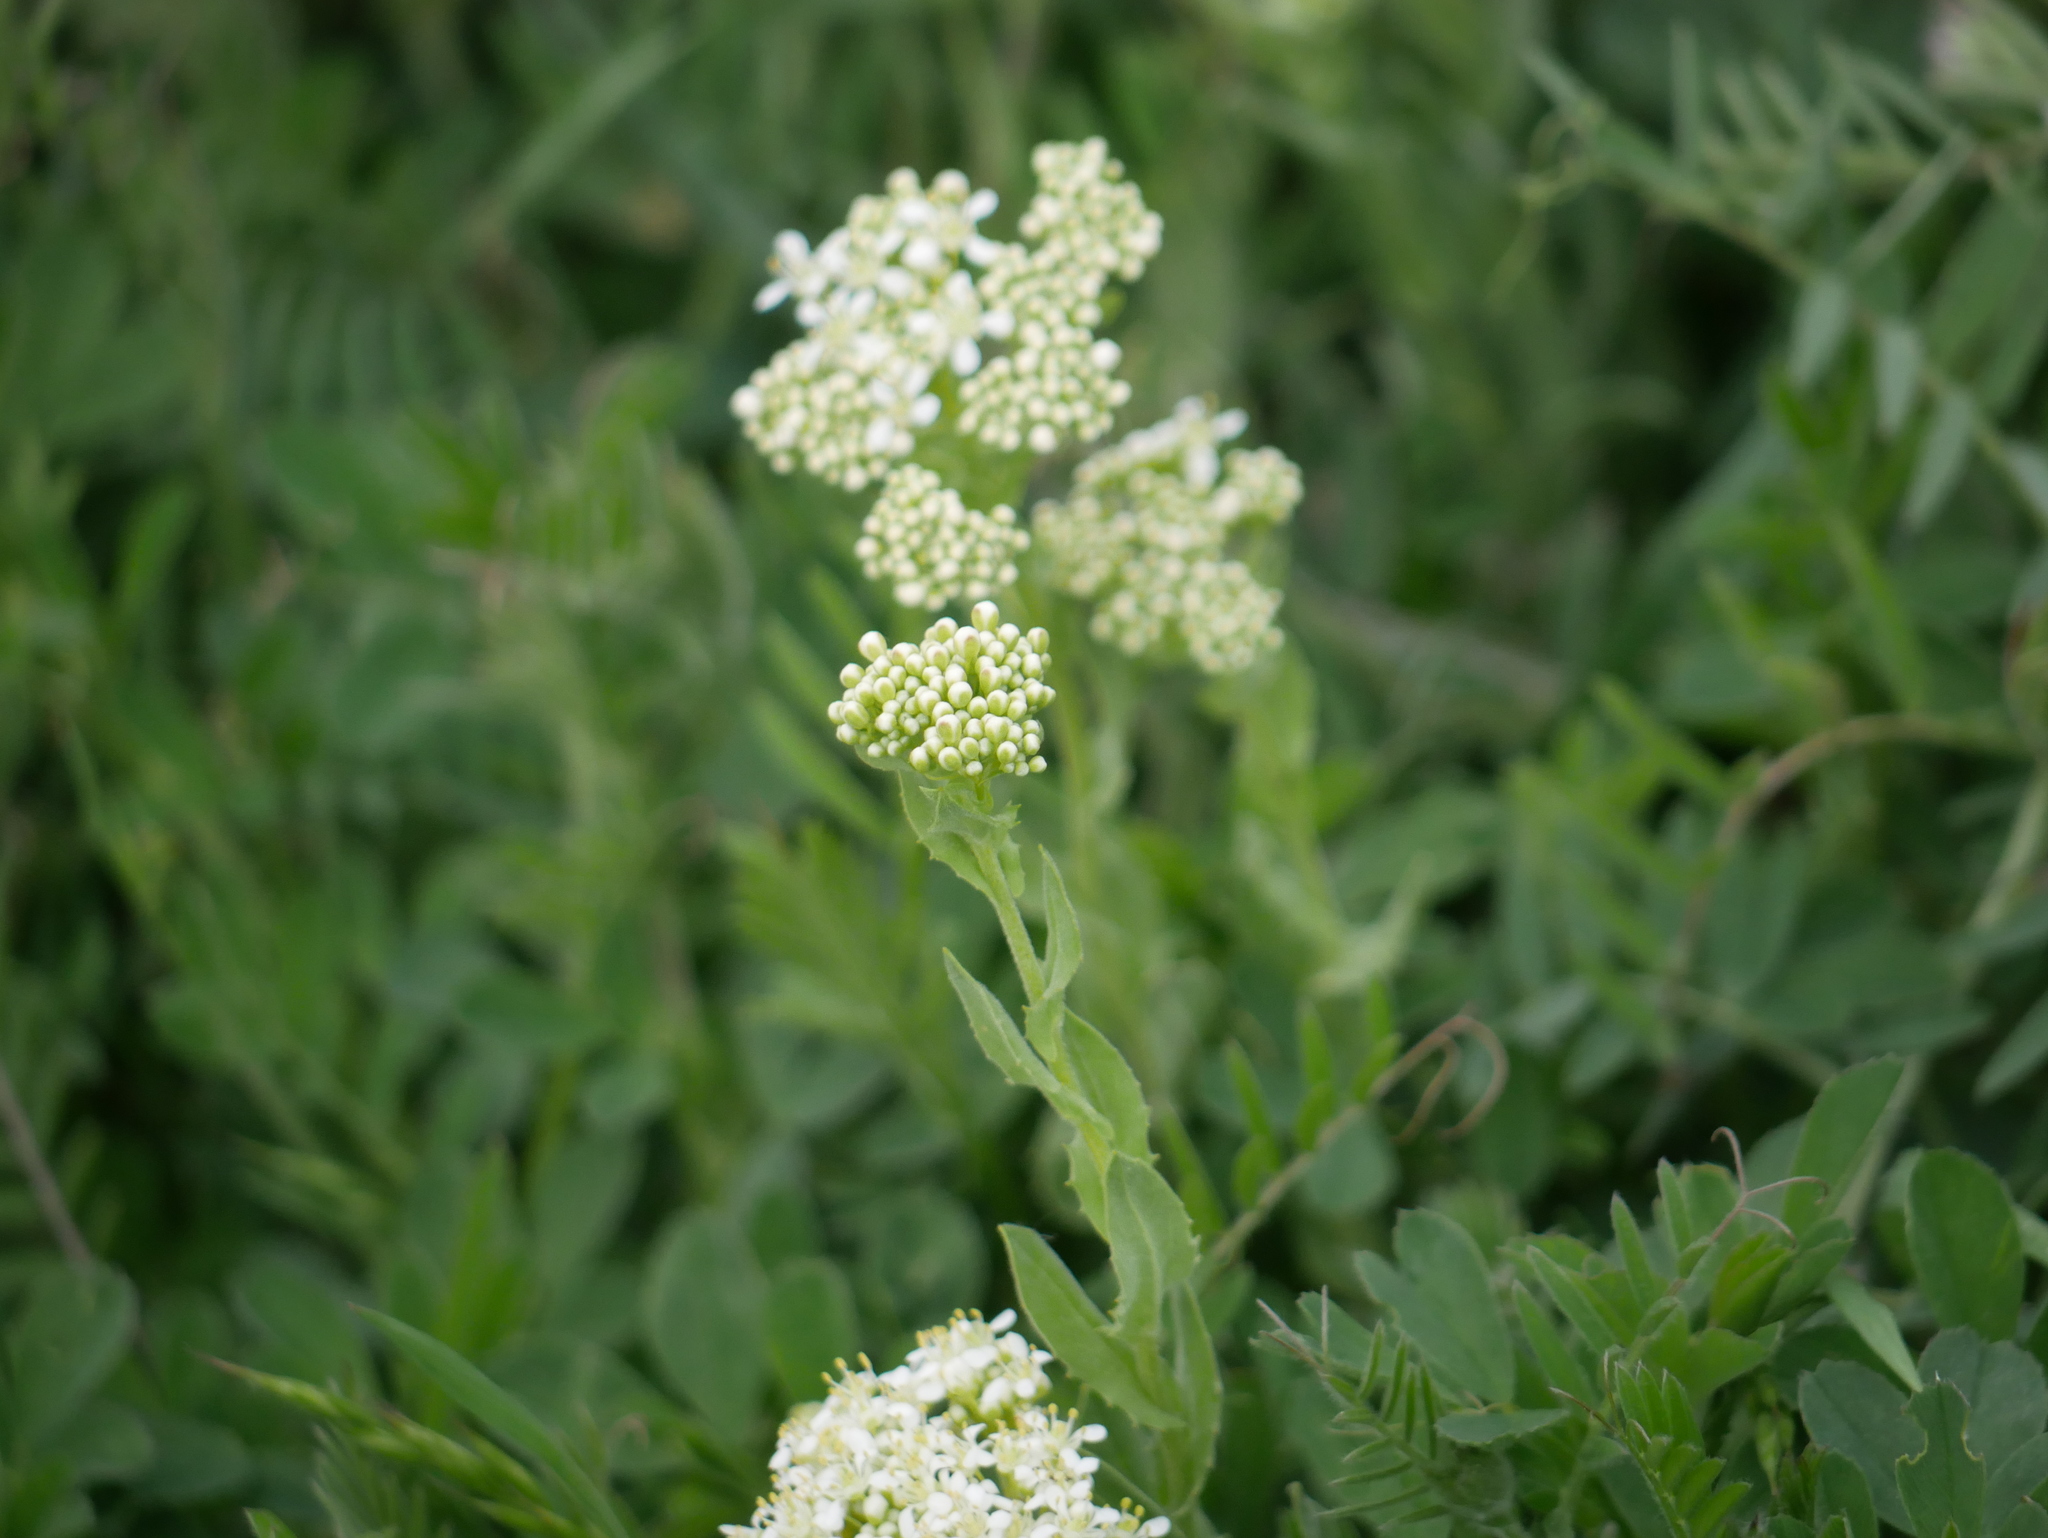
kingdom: Plantae
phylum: Tracheophyta
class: Magnoliopsida
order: Brassicales
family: Brassicaceae
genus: Lepidium
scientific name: Lepidium draba
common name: Hoary cress
